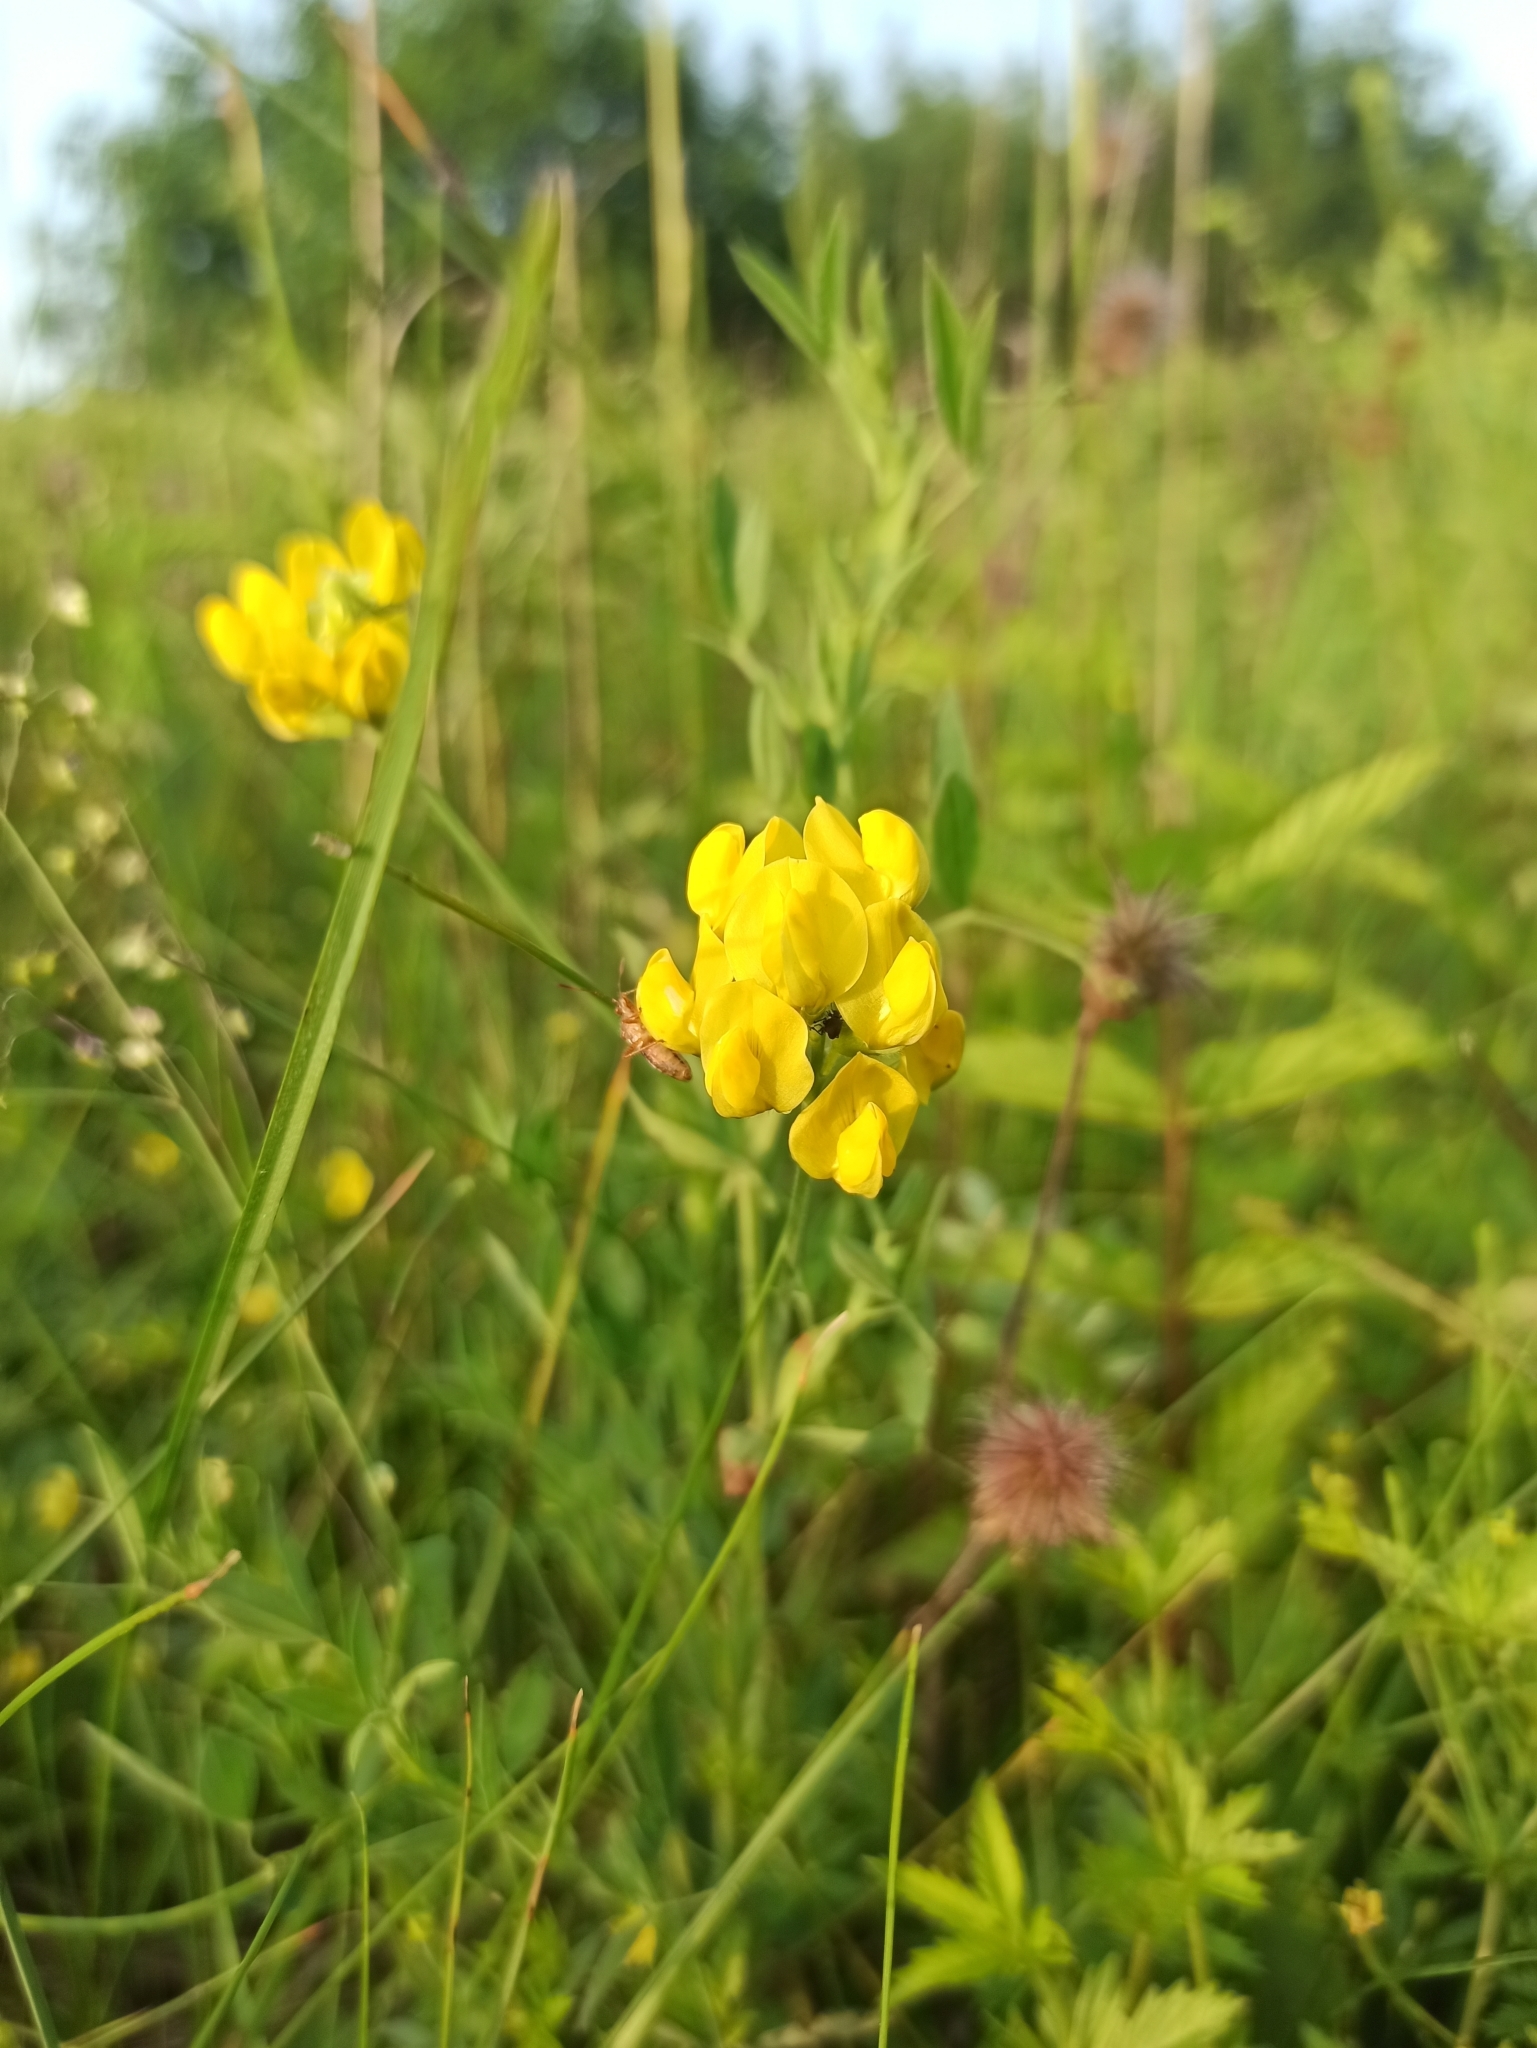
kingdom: Plantae
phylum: Tracheophyta
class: Magnoliopsida
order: Fabales
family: Fabaceae
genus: Lathyrus
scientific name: Lathyrus pratensis
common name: Meadow vetchling
